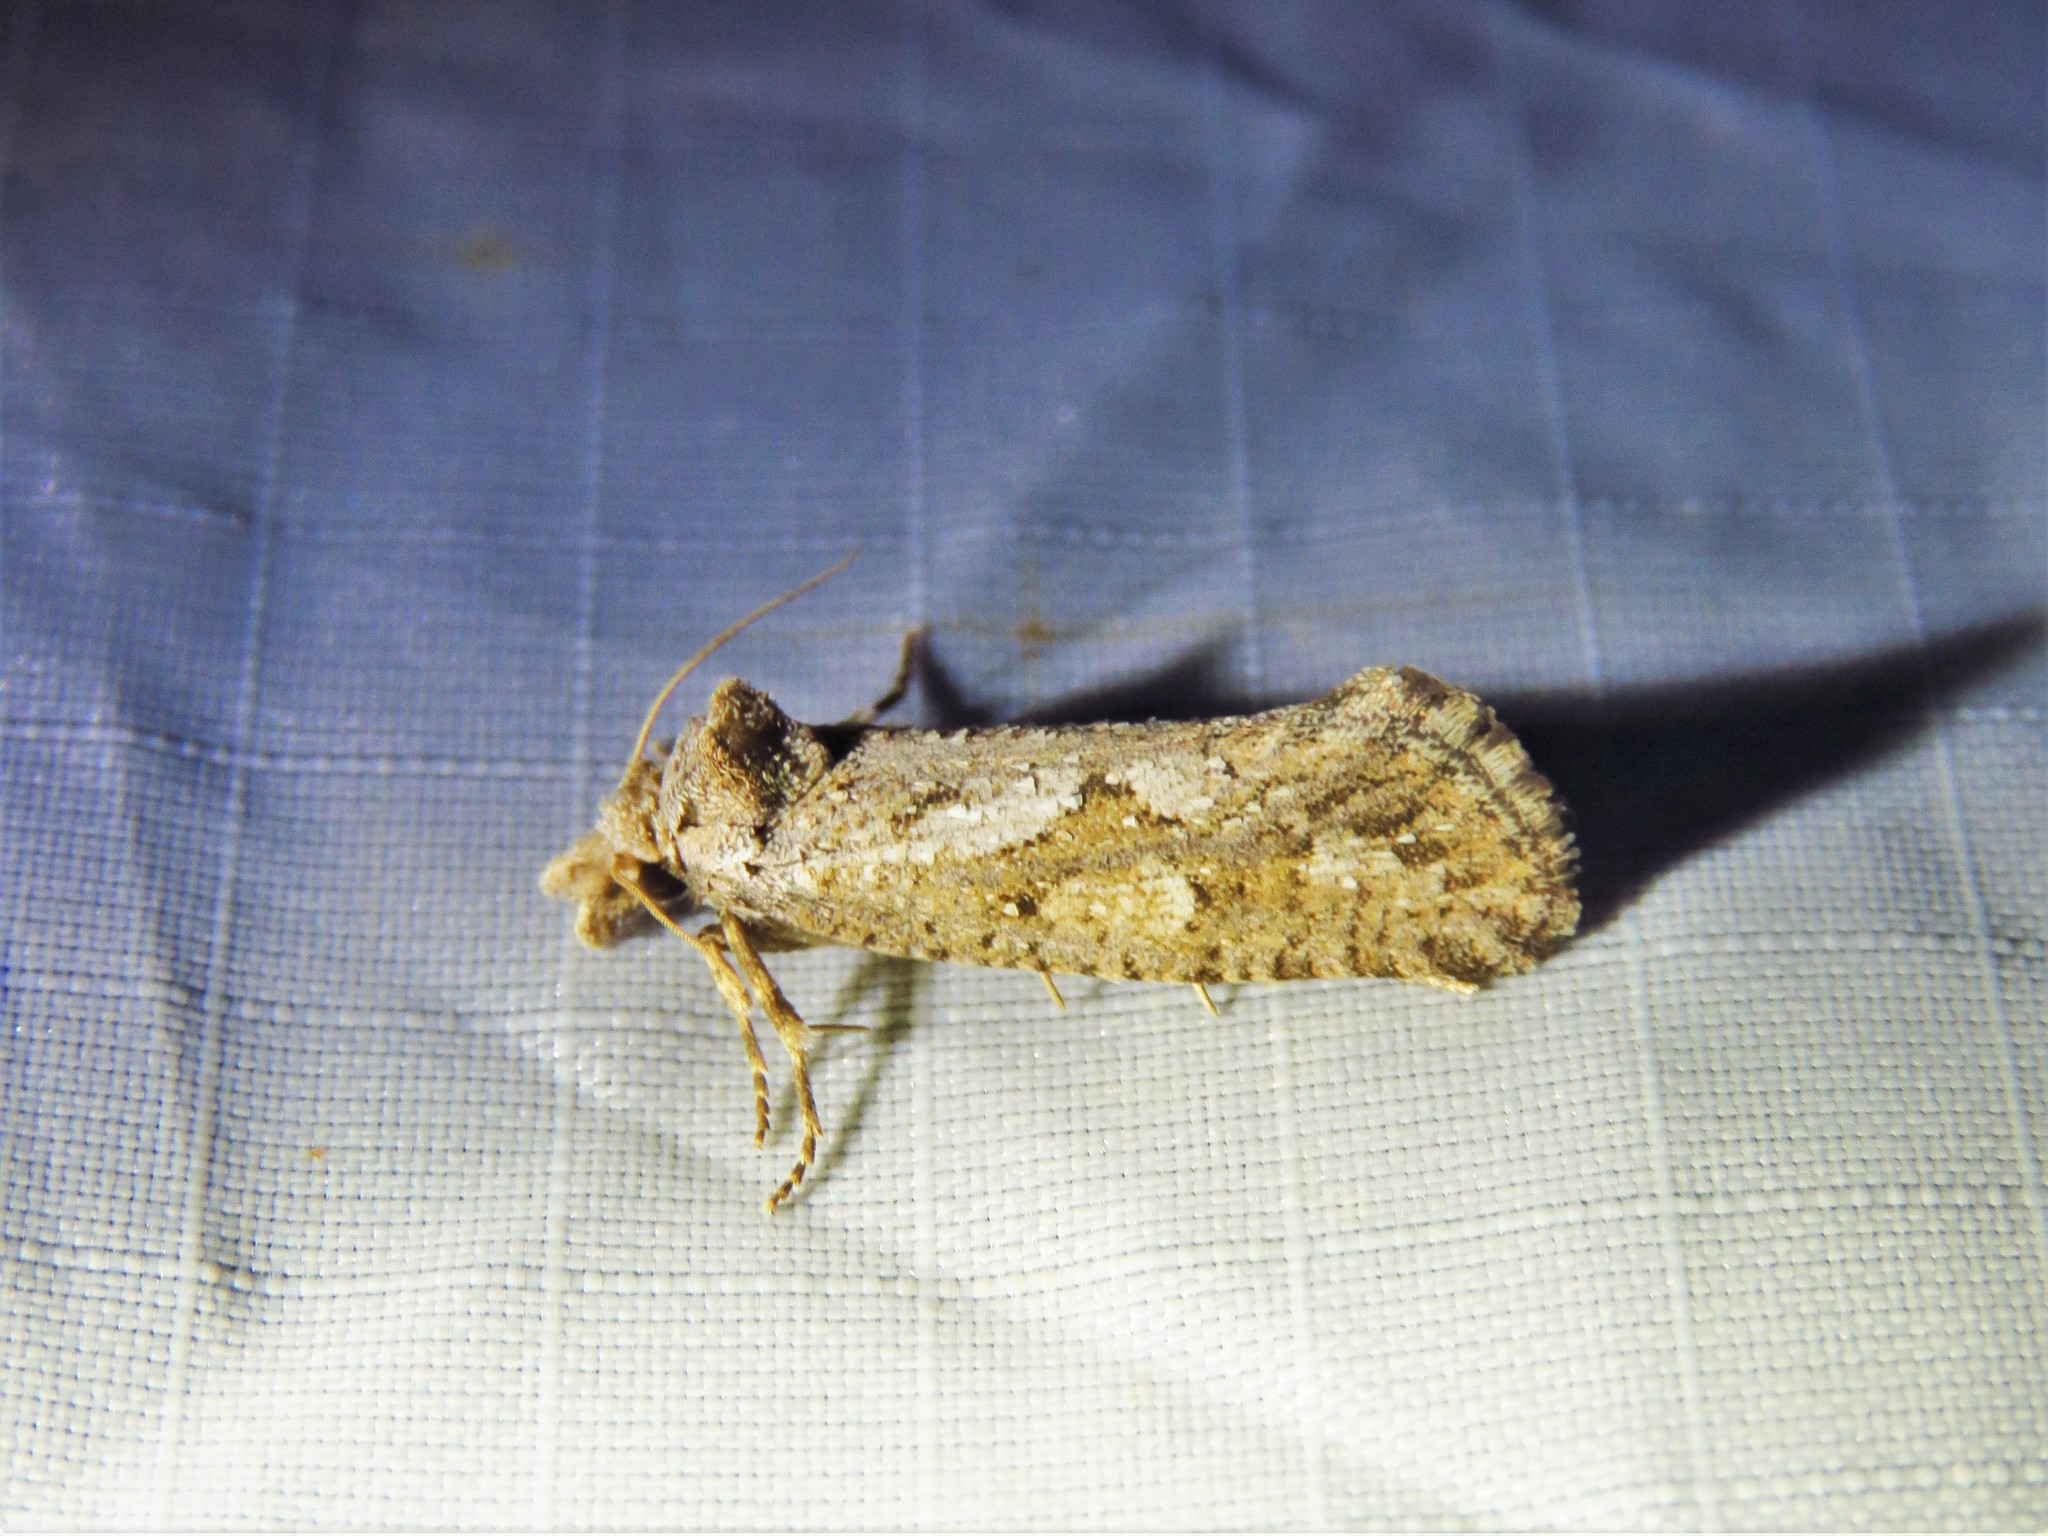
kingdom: Animalia
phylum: Arthropoda
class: Insecta
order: Lepidoptera
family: Tineidae
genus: Acrolophus
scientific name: Acrolophus variabilis
